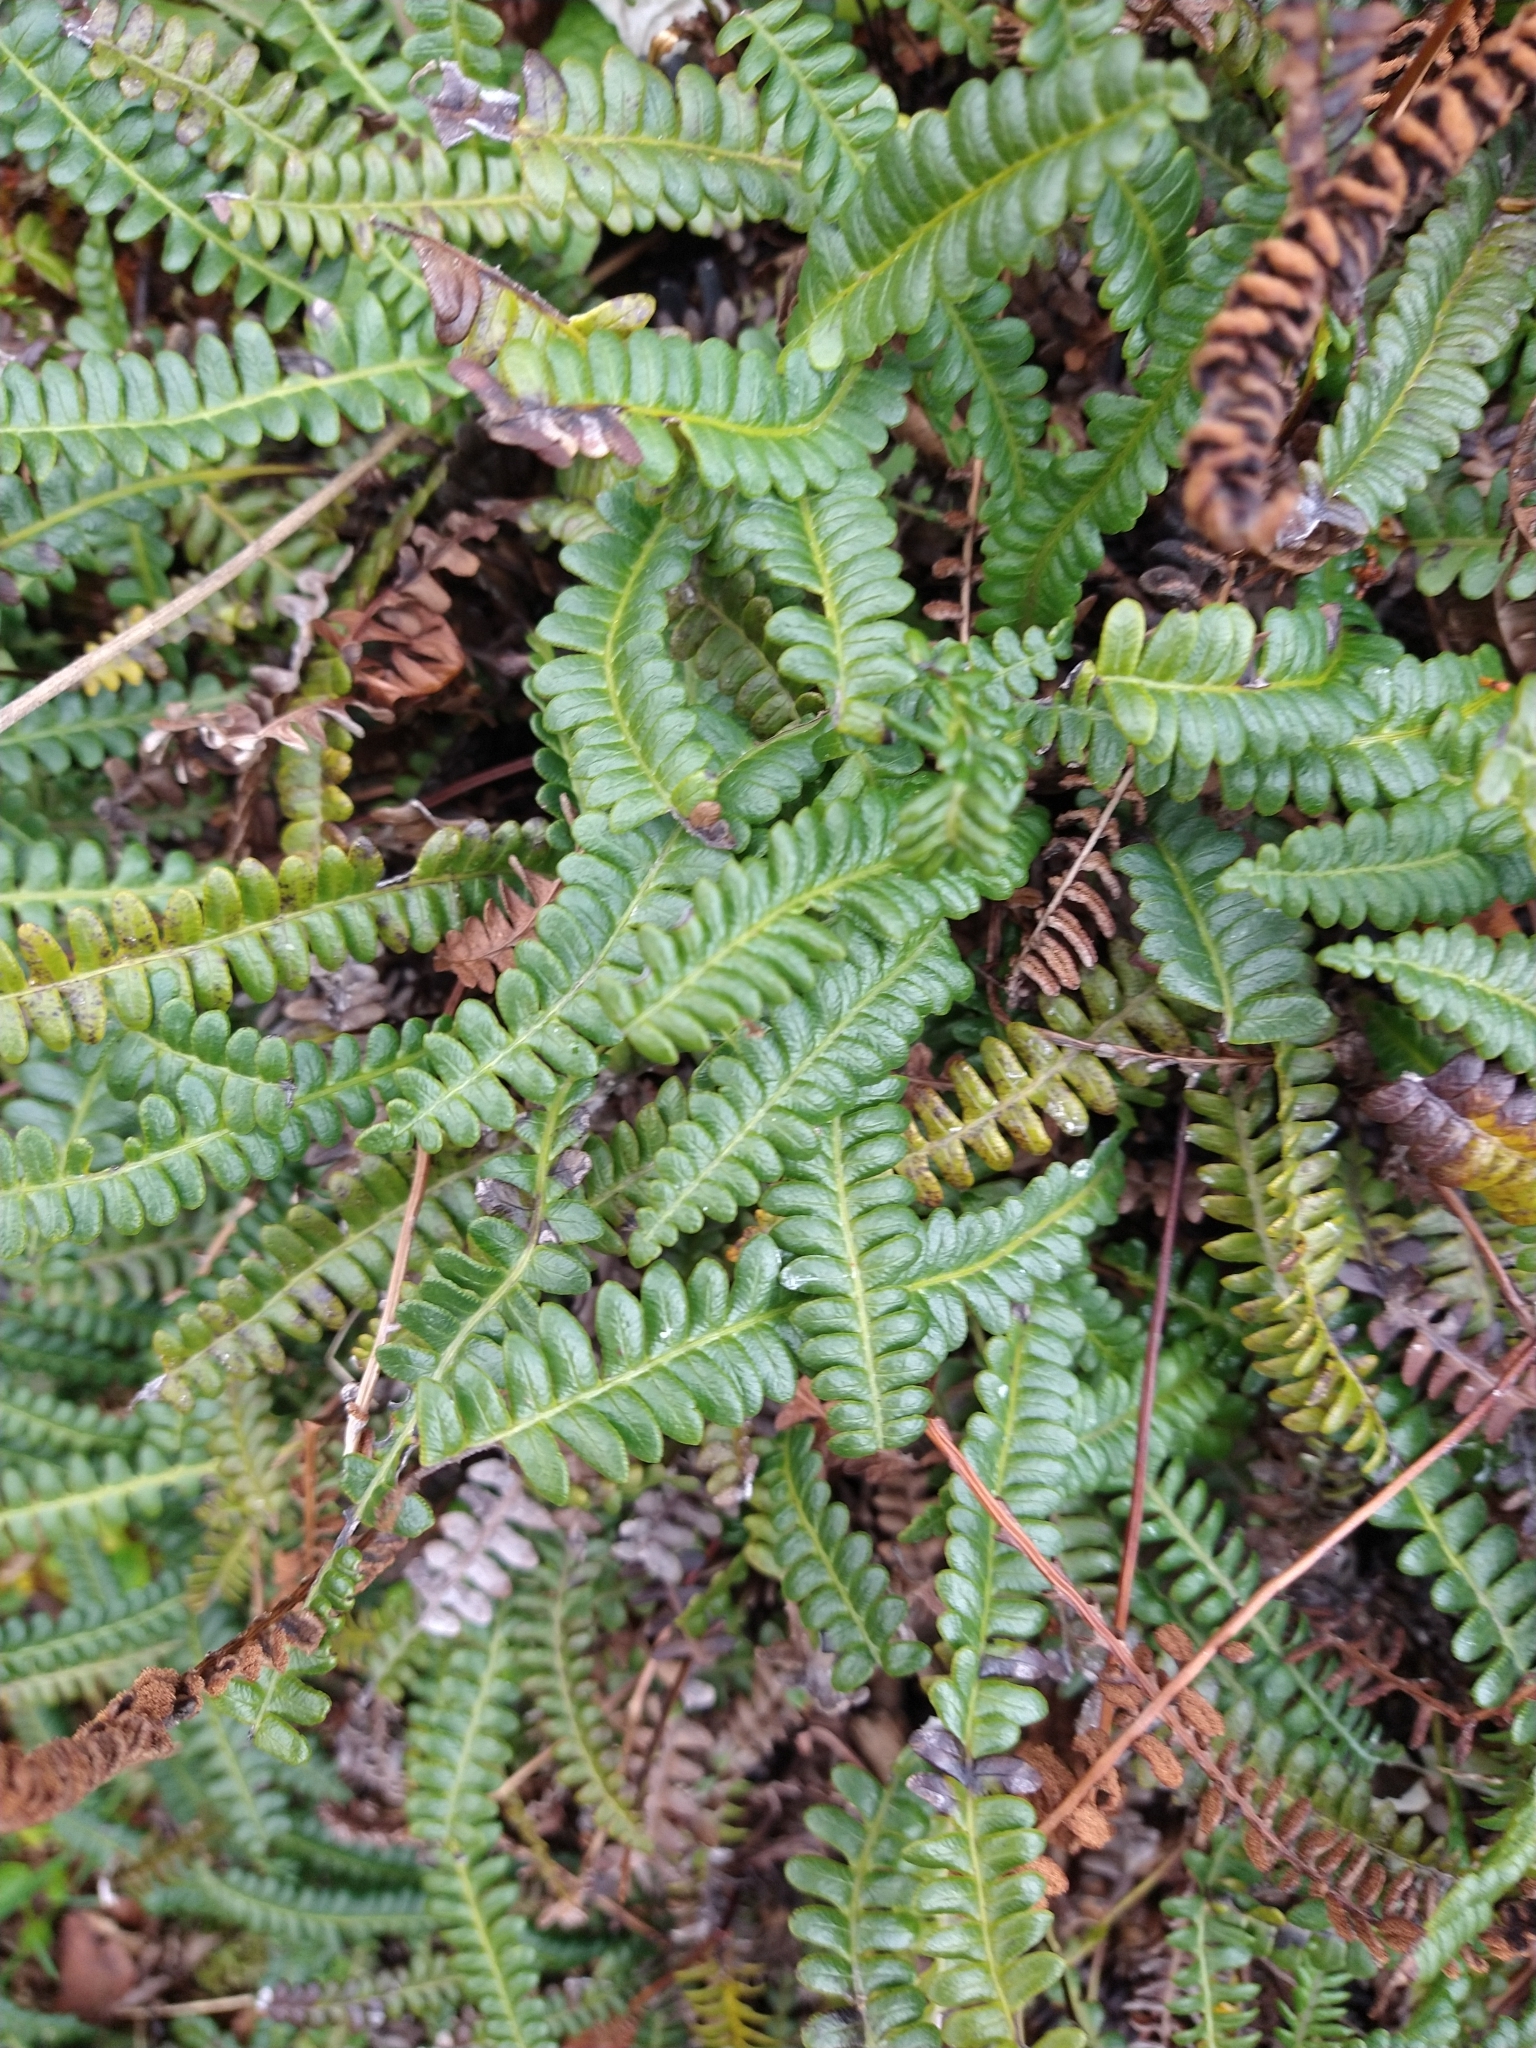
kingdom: Plantae
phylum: Tracheophyta
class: Polypodiopsida
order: Polypodiales
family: Blechnaceae
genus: Austroblechnum
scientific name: Austroblechnum penna-marina
